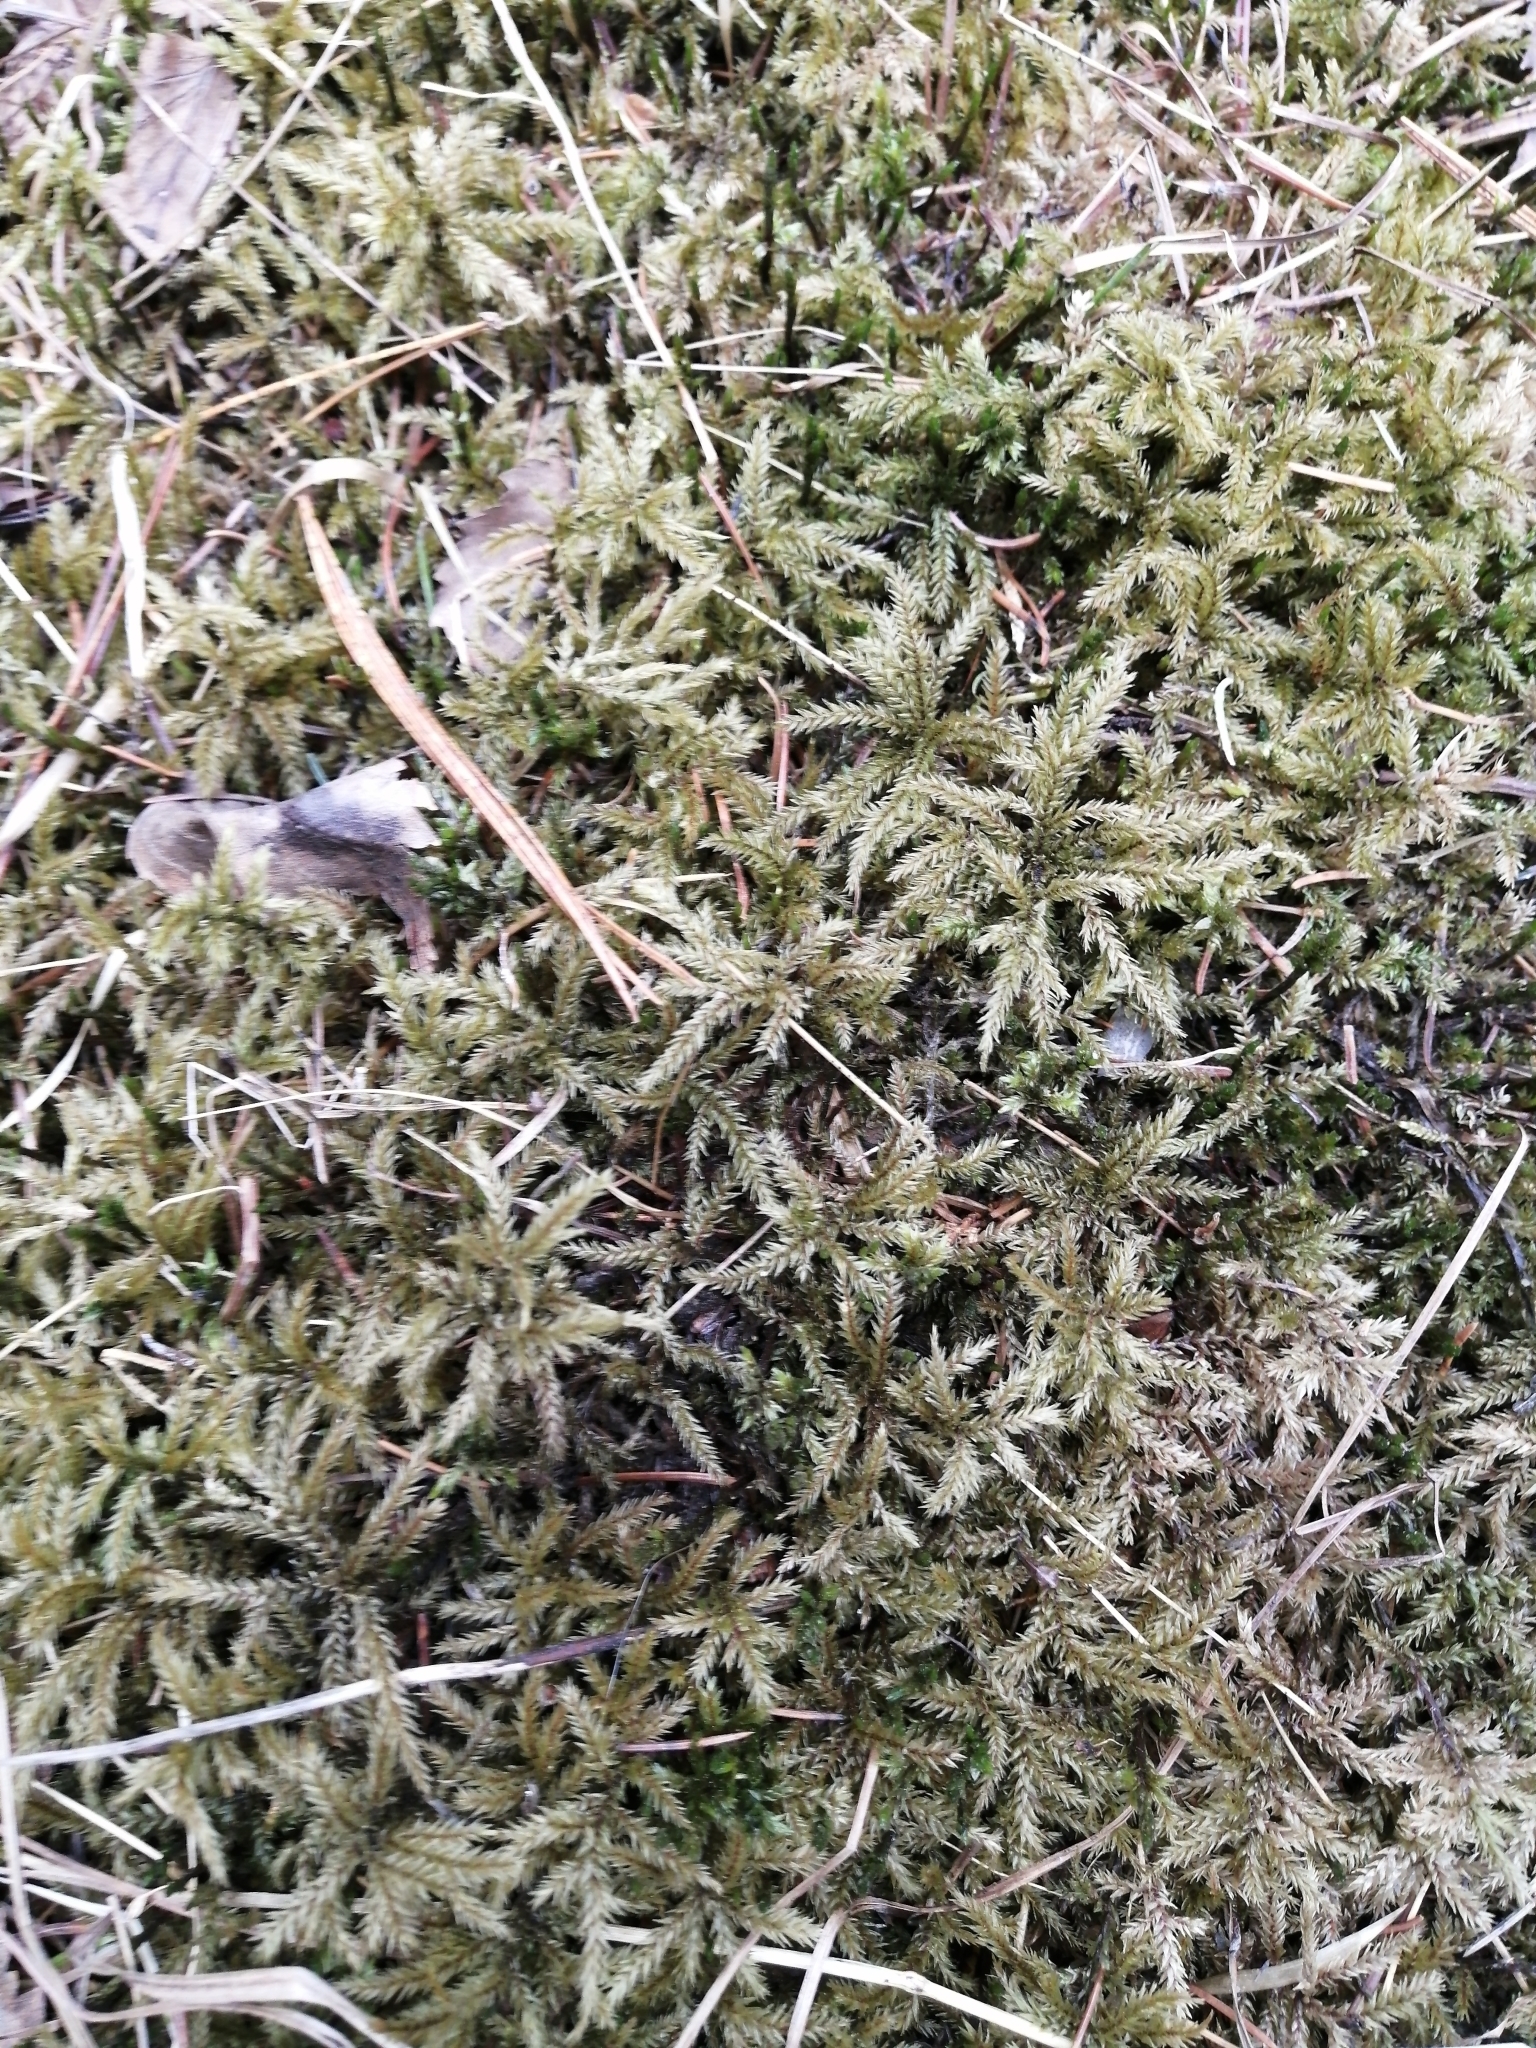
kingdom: Plantae
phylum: Bryophyta
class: Bryopsida
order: Hypnales
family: Climaciaceae
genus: Climacium
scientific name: Climacium dendroides
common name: Northern tree moss
